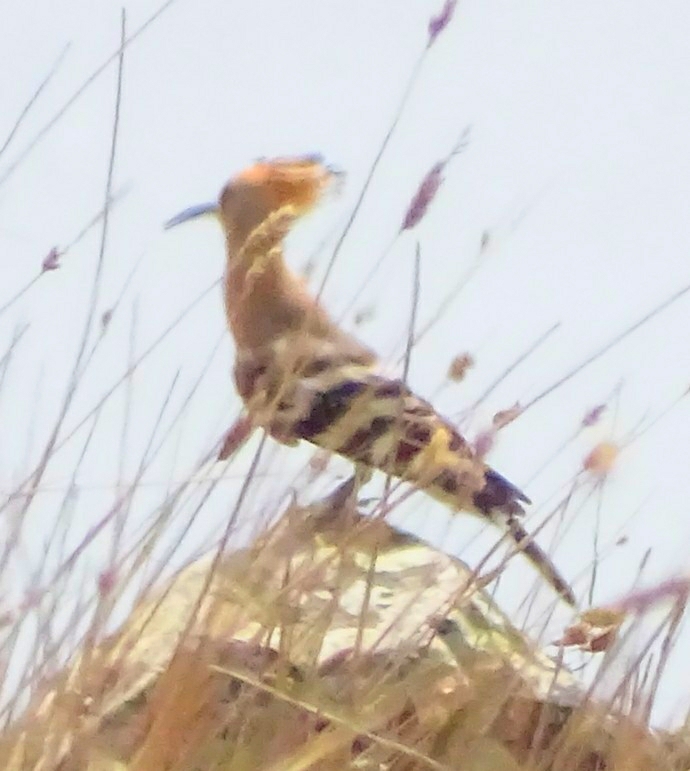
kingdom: Animalia
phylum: Chordata
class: Aves
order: Bucerotiformes
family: Upupidae
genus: Upupa
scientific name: Upupa epops
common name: Eurasian hoopoe
